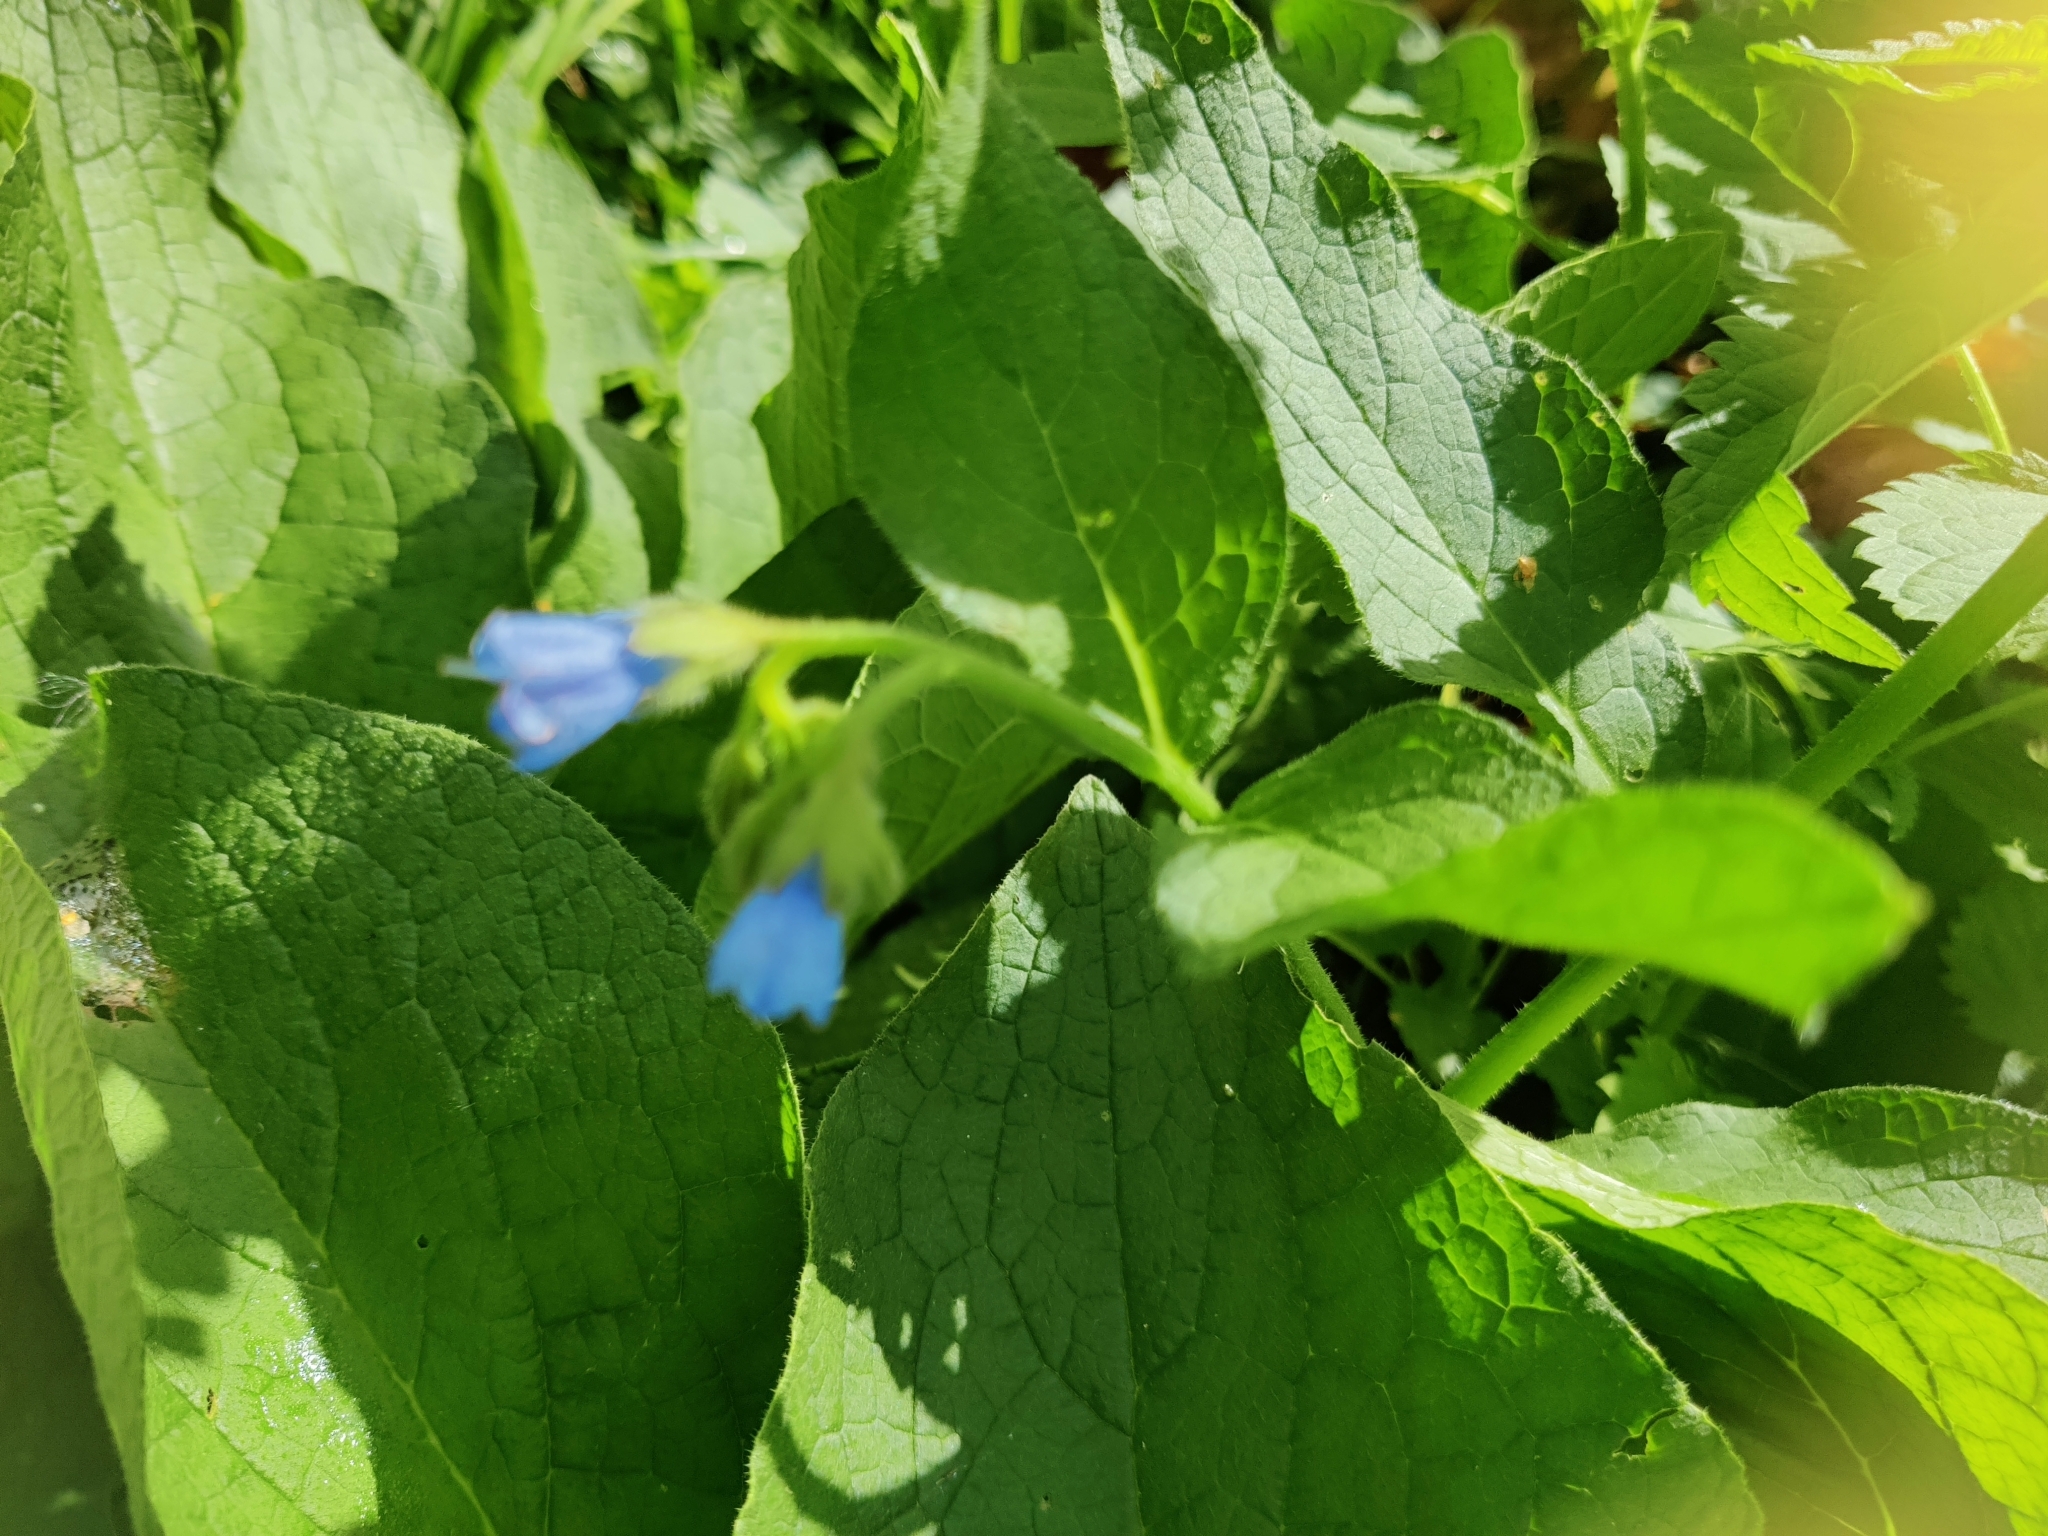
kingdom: Plantae
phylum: Tracheophyta
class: Magnoliopsida
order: Boraginales
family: Boraginaceae
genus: Symphytum
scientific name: Symphytum caucasicum
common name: Caucasian comfrey
